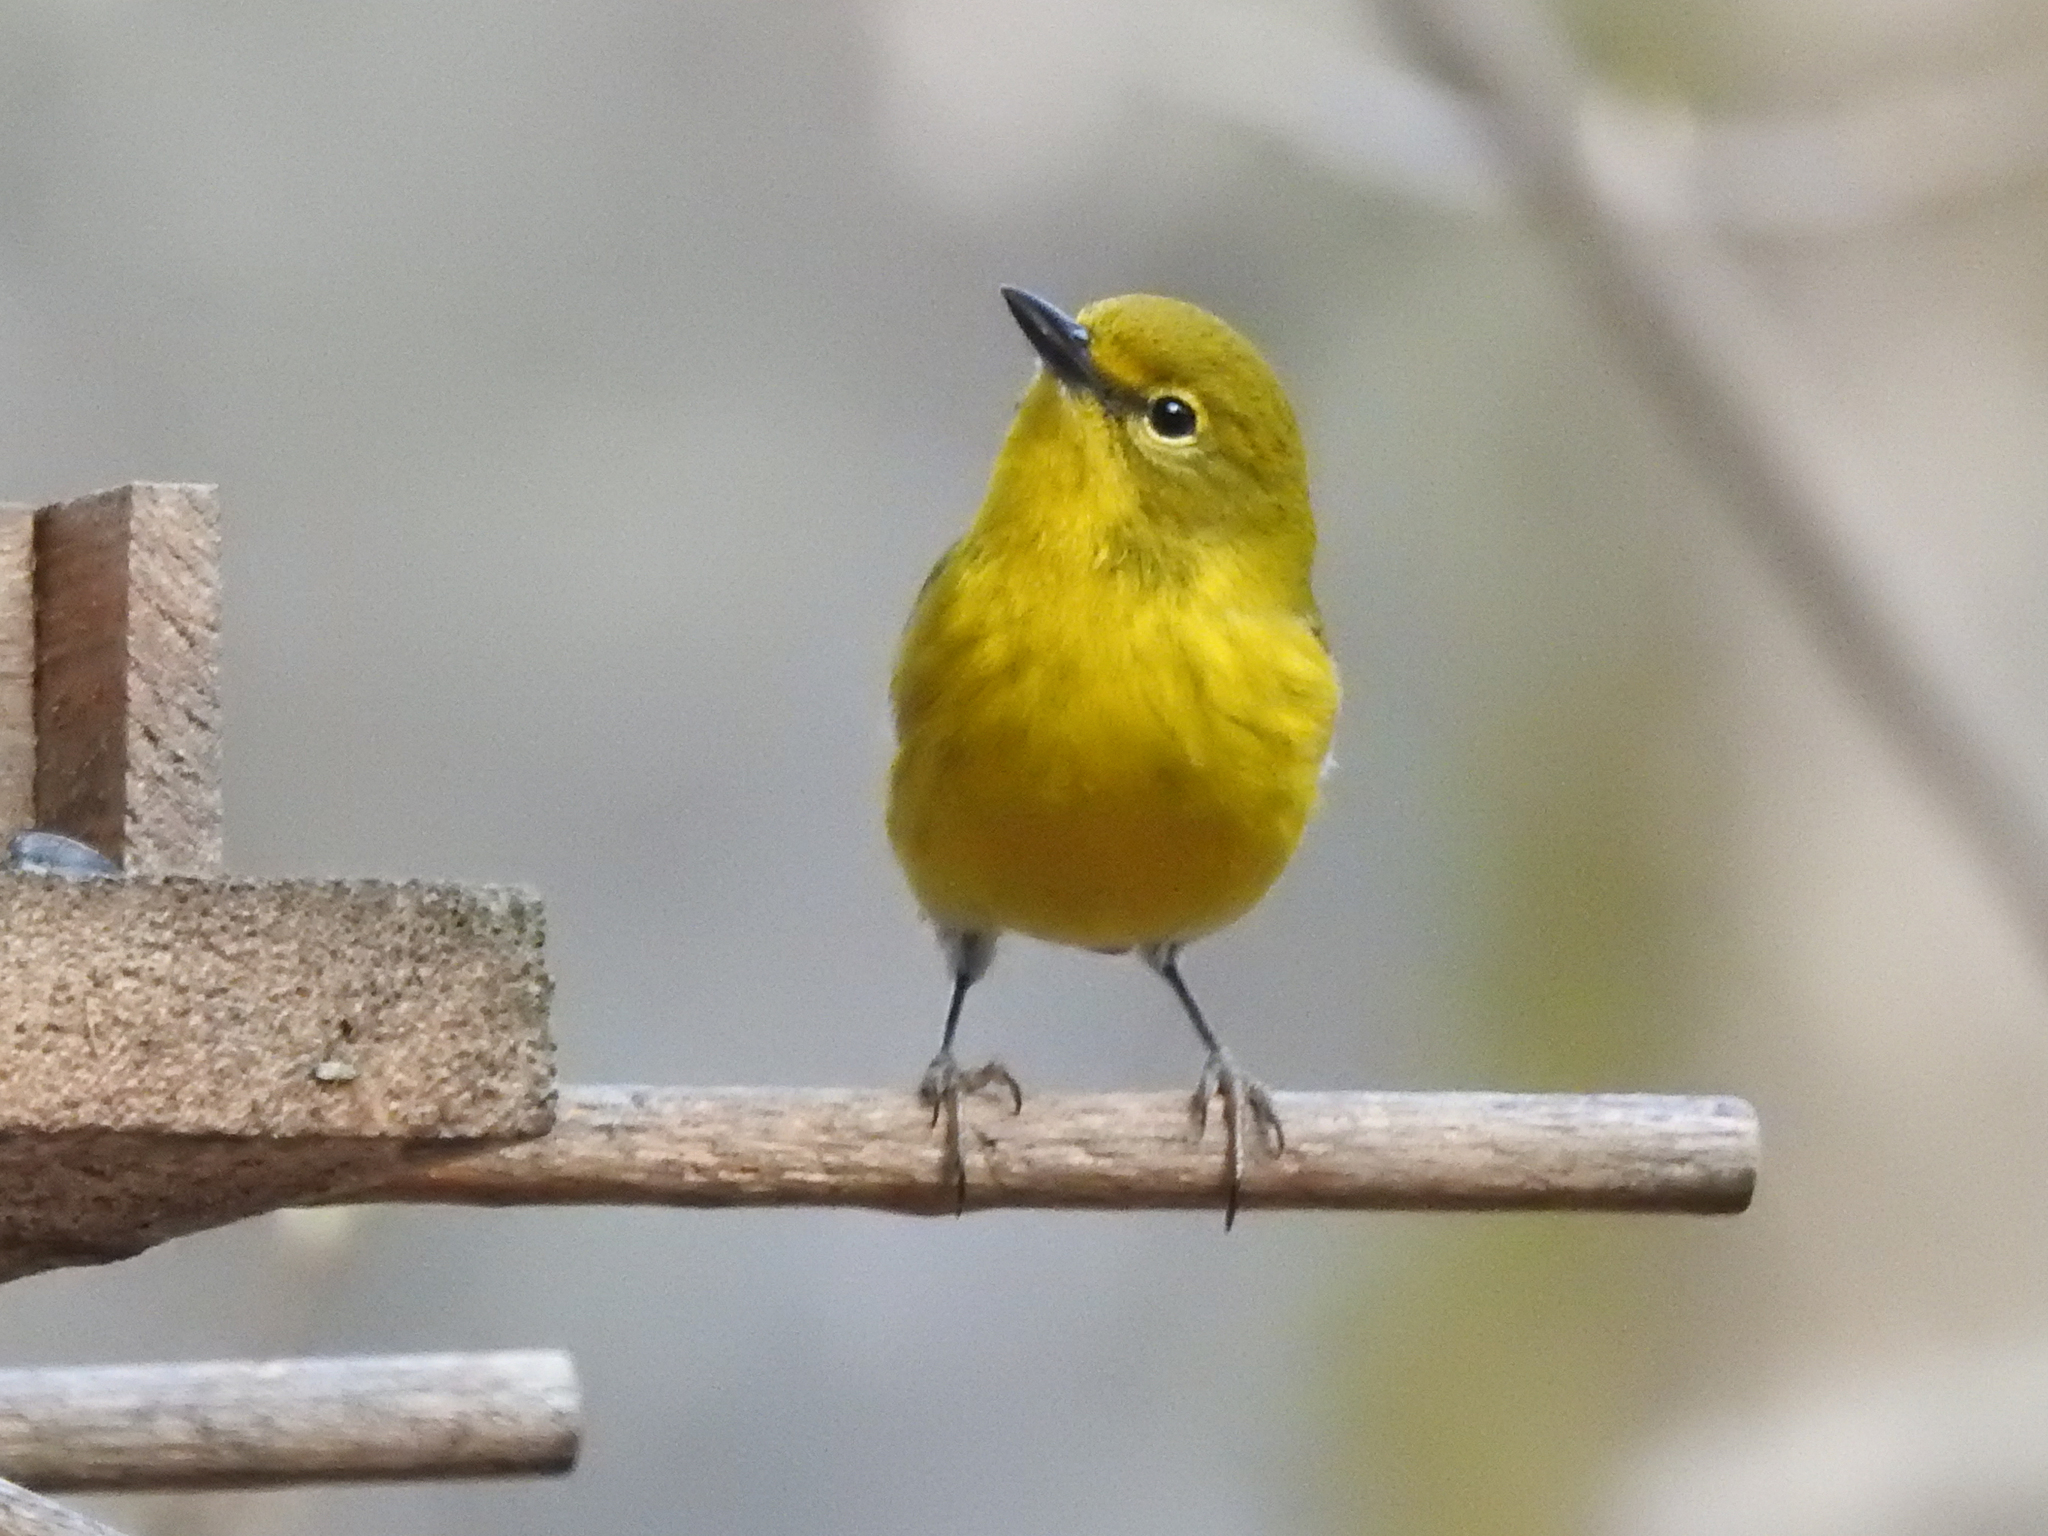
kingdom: Animalia
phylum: Chordata
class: Aves
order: Passeriformes
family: Parulidae
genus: Setophaga
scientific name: Setophaga pinus
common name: Pine warbler
